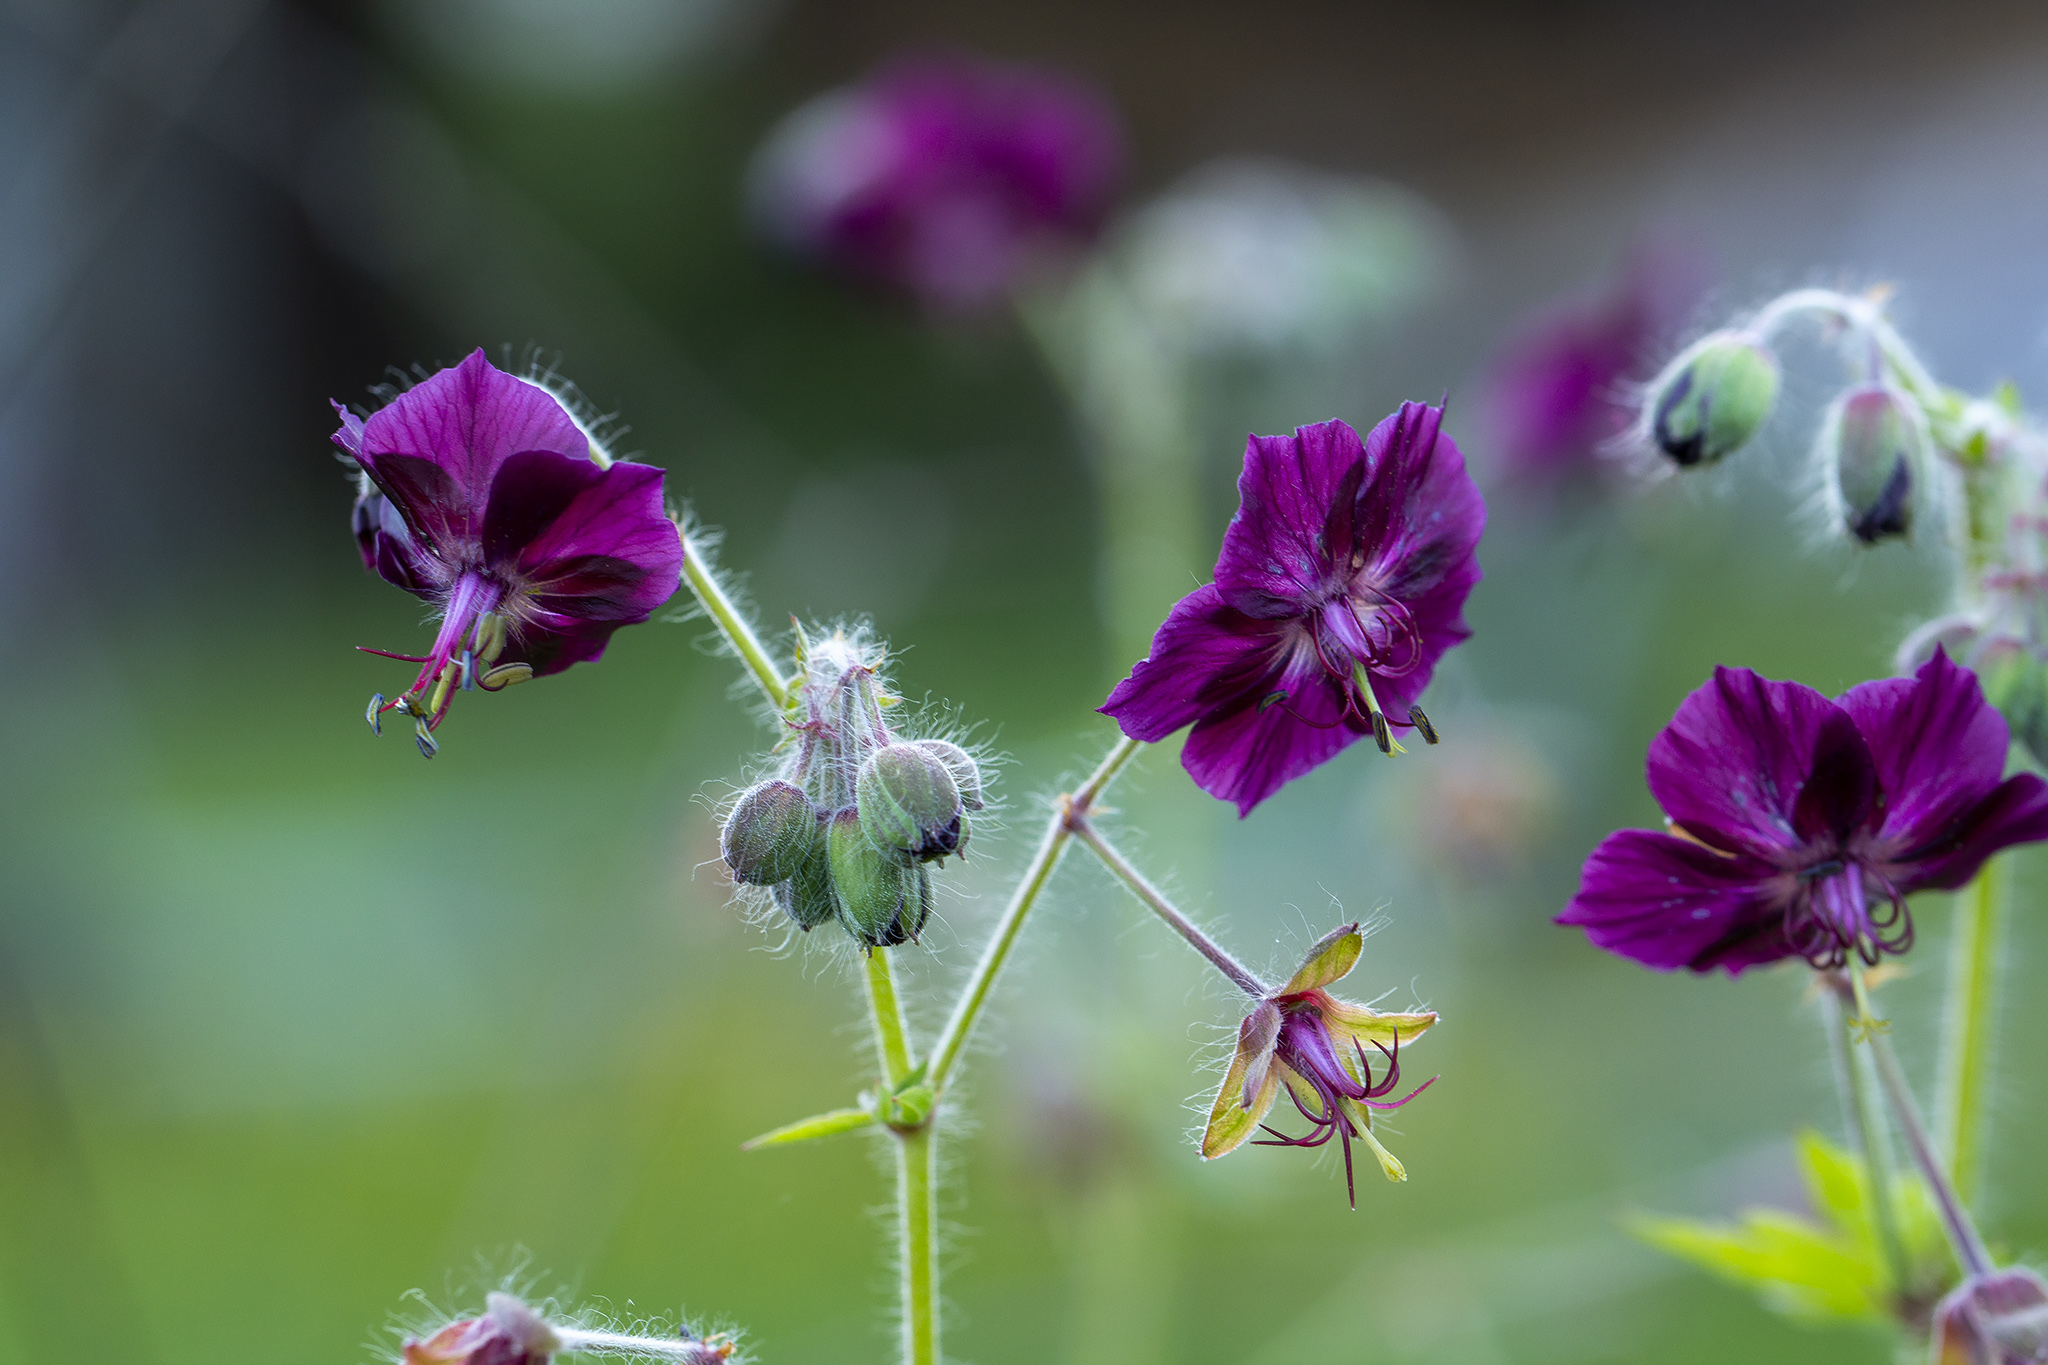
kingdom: Plantae
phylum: Tracheophyta
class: Magnoliopsida
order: Geraniales
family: Geraniaceae
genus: Geranium
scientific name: Geranium phaeum
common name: Dusky crane's-bill
